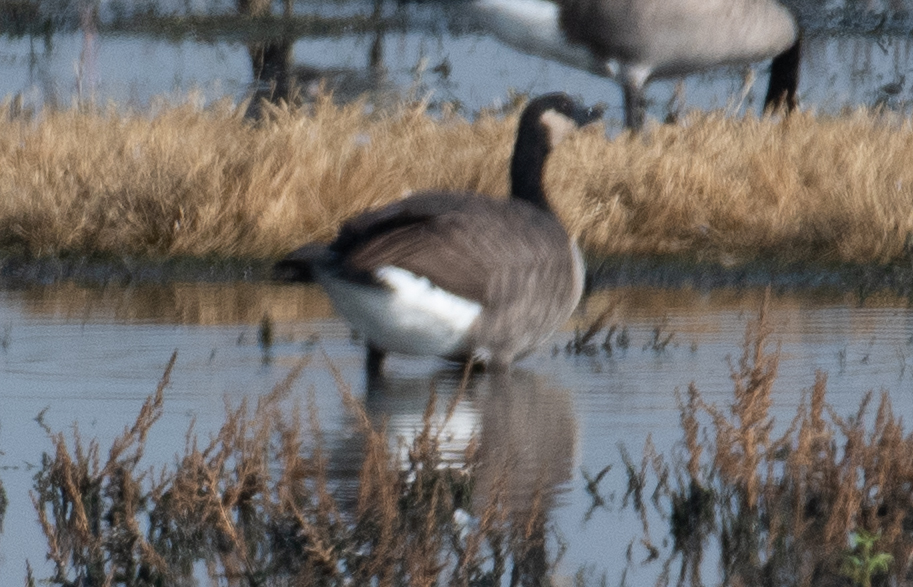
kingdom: Animalia
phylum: Chordata
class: Aves
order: Anseriformes
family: Anatidae
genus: Branta
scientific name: Branta canadensis
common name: Canada goose
